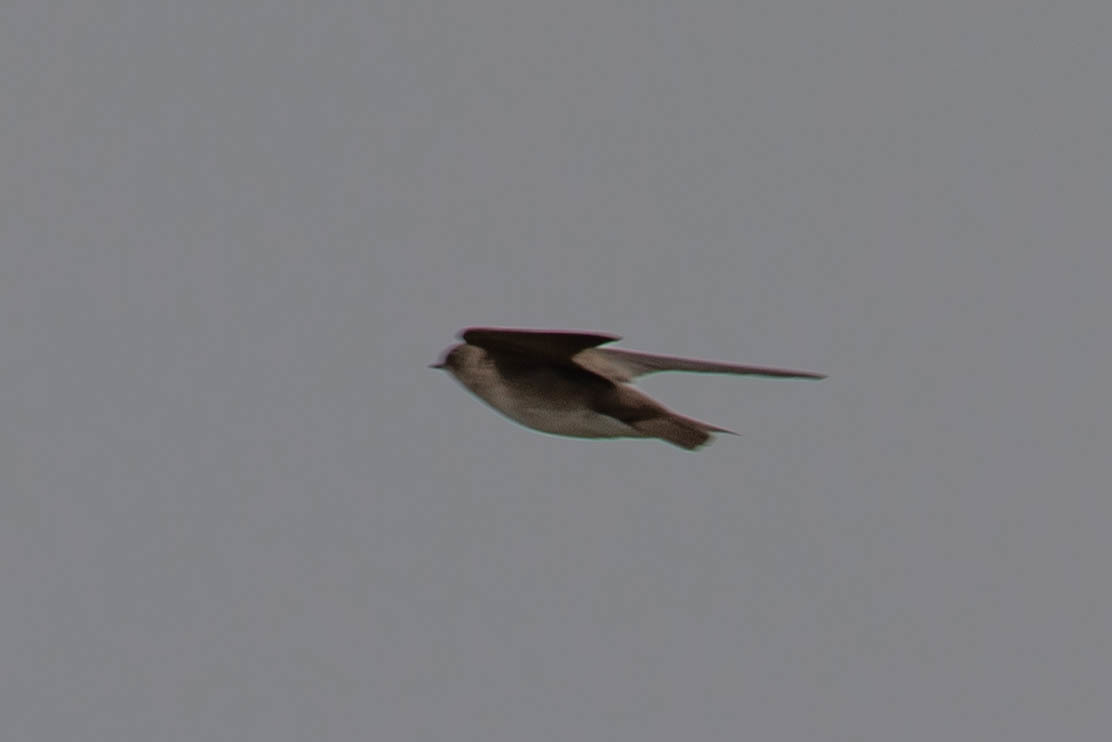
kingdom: Animalia
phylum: Chordata
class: Aves
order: Passeriformes
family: Hirundinidae
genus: Stelgidopteryx
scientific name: Stelgidopteryx serripennis
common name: Northern rough-winged swallow
